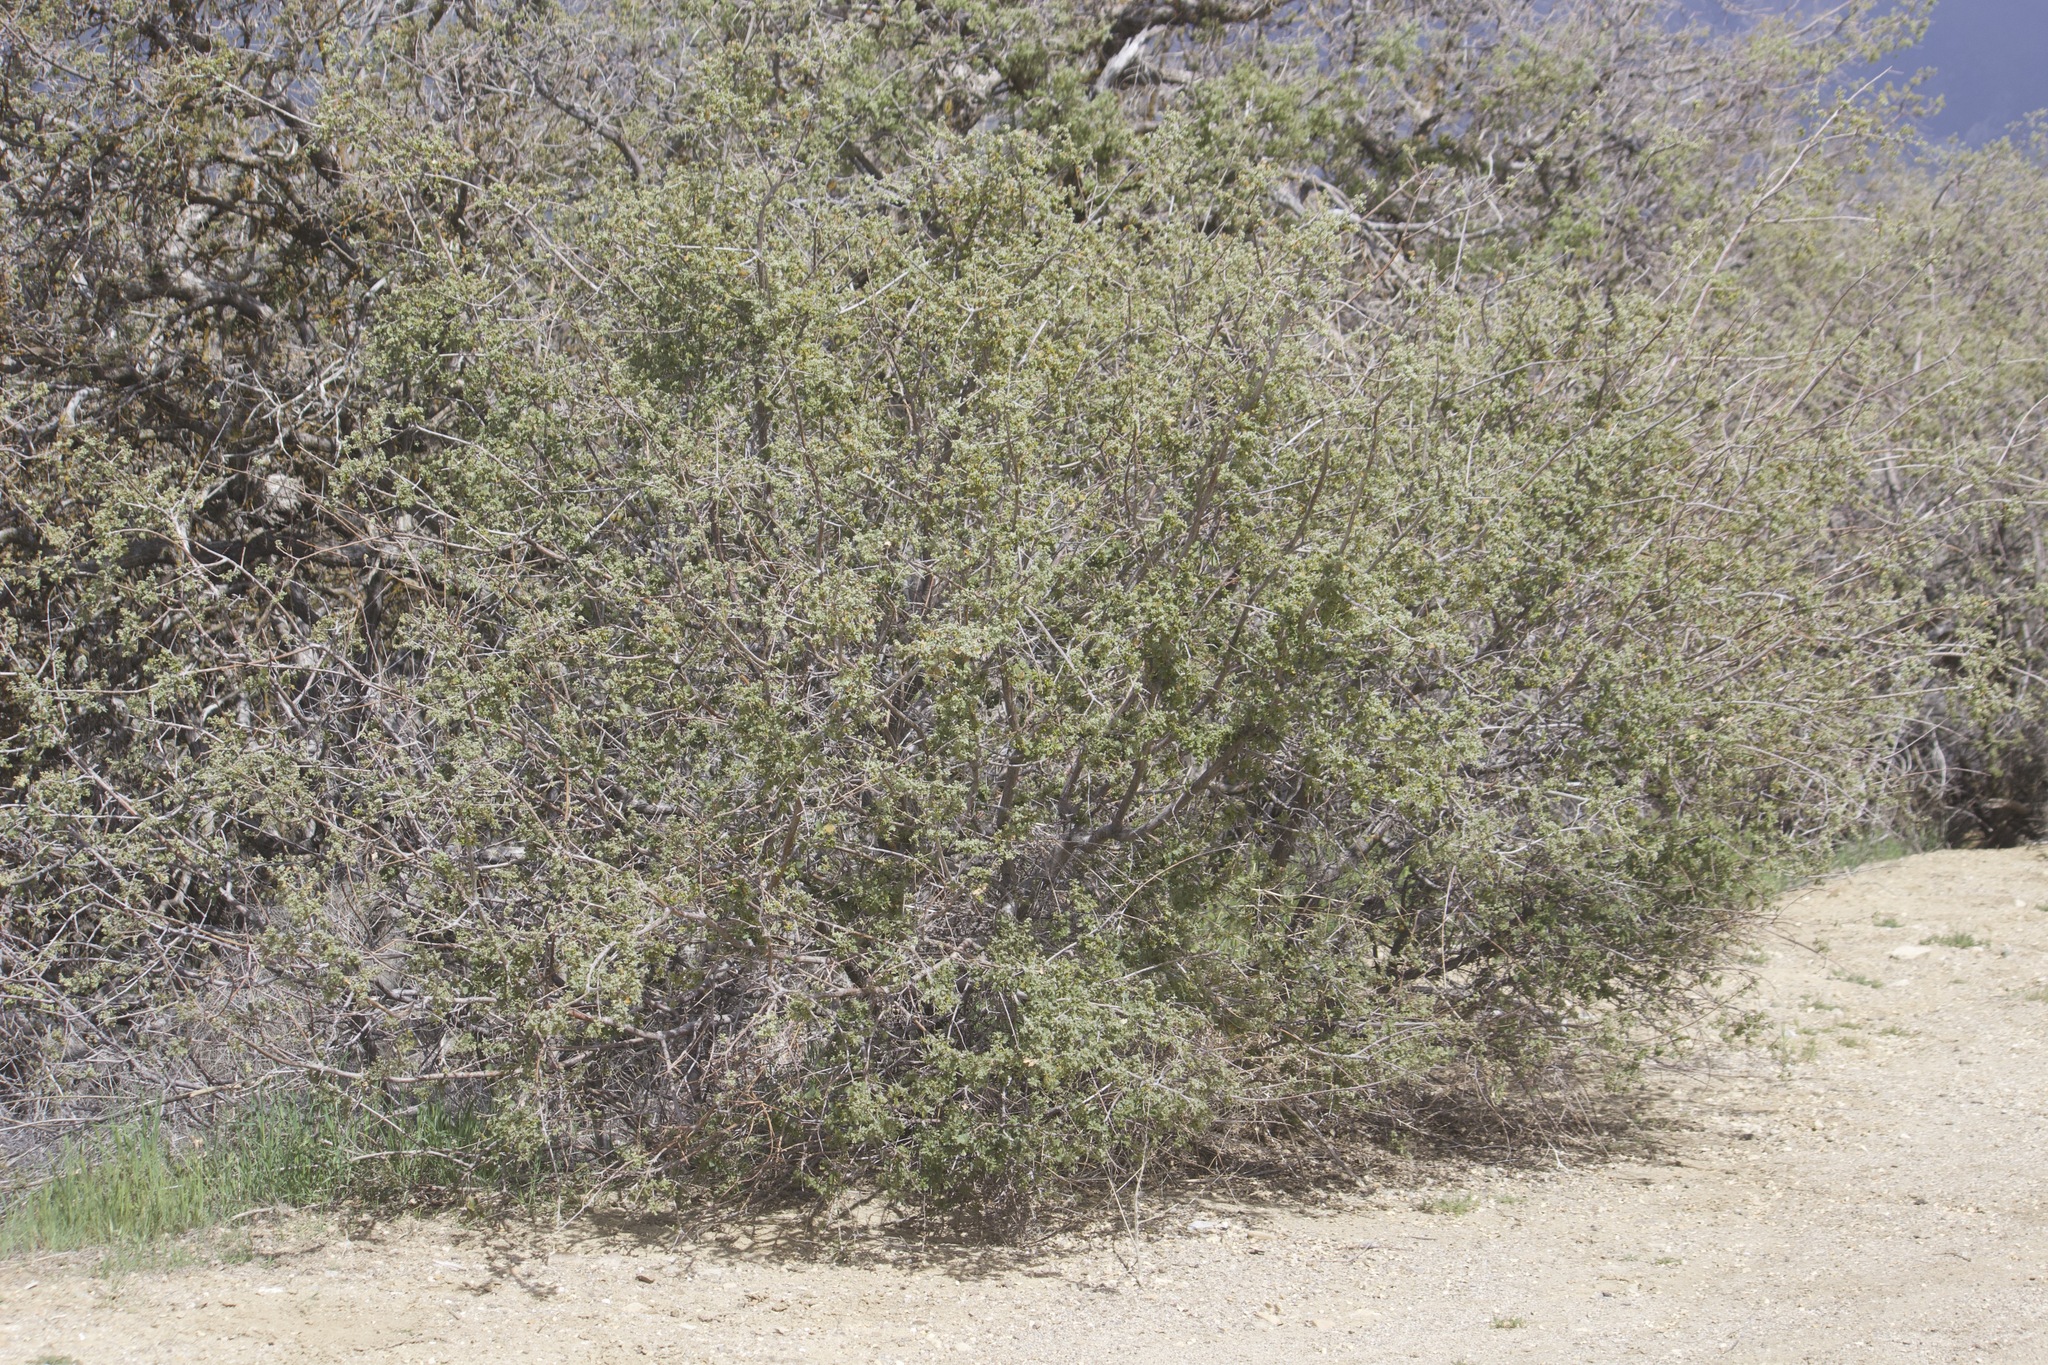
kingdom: Plantae
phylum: Tracheophyta
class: Magnoliopsida
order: Fagales
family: Fagaceae
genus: Quercus
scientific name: Quercus john-tuckeri
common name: Tucker's oak
